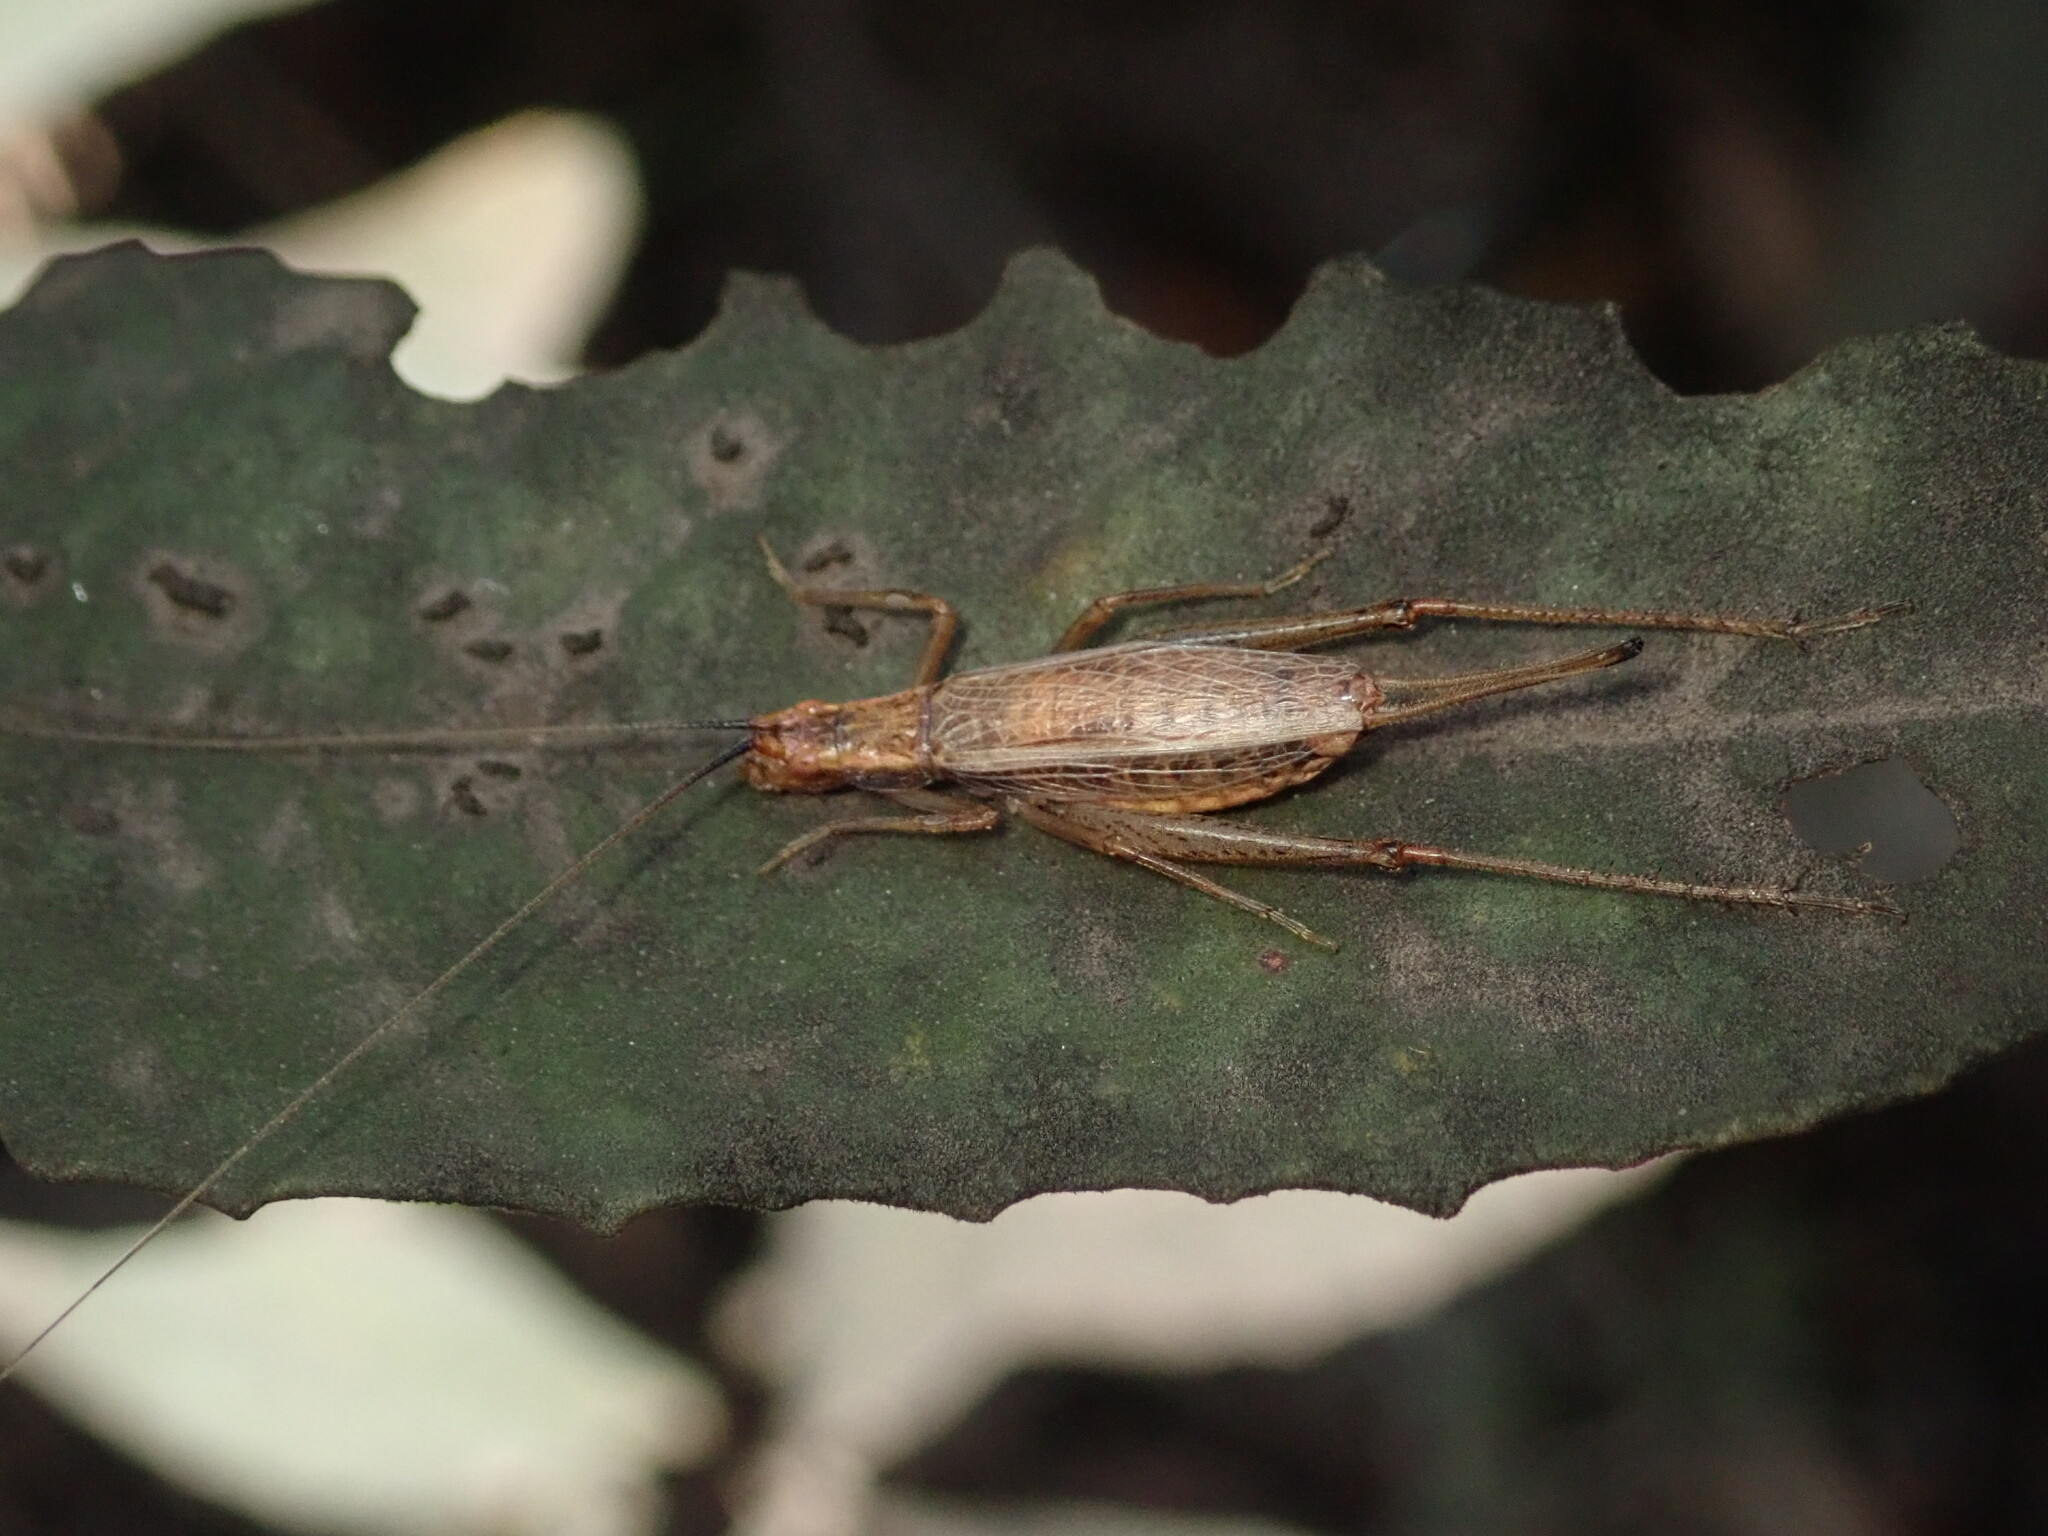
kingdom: Animalia
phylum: Arthropoda
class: Insecta
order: Orthoptera
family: Gryllidae
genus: Oecanthus
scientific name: Oecanthus californicus
